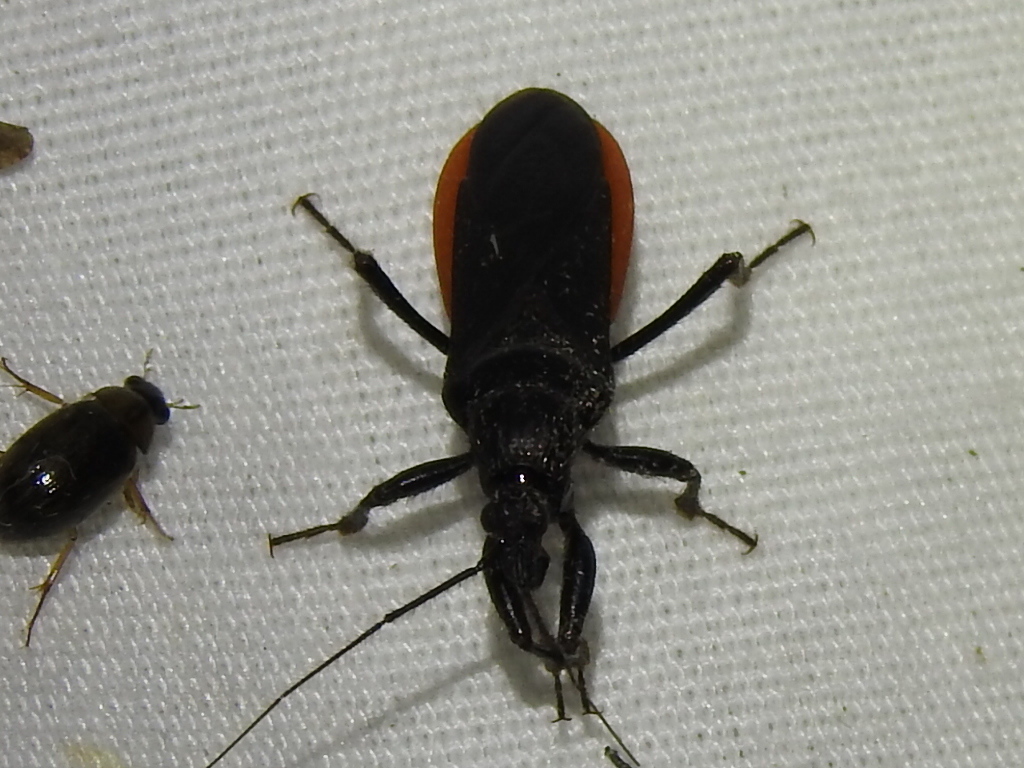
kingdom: Animalia
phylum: Arthropoda
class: Insecta
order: Hemiptera
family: Reduviidae
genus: Melanolestes
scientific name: Melanolestes picipes
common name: Assassin bug
